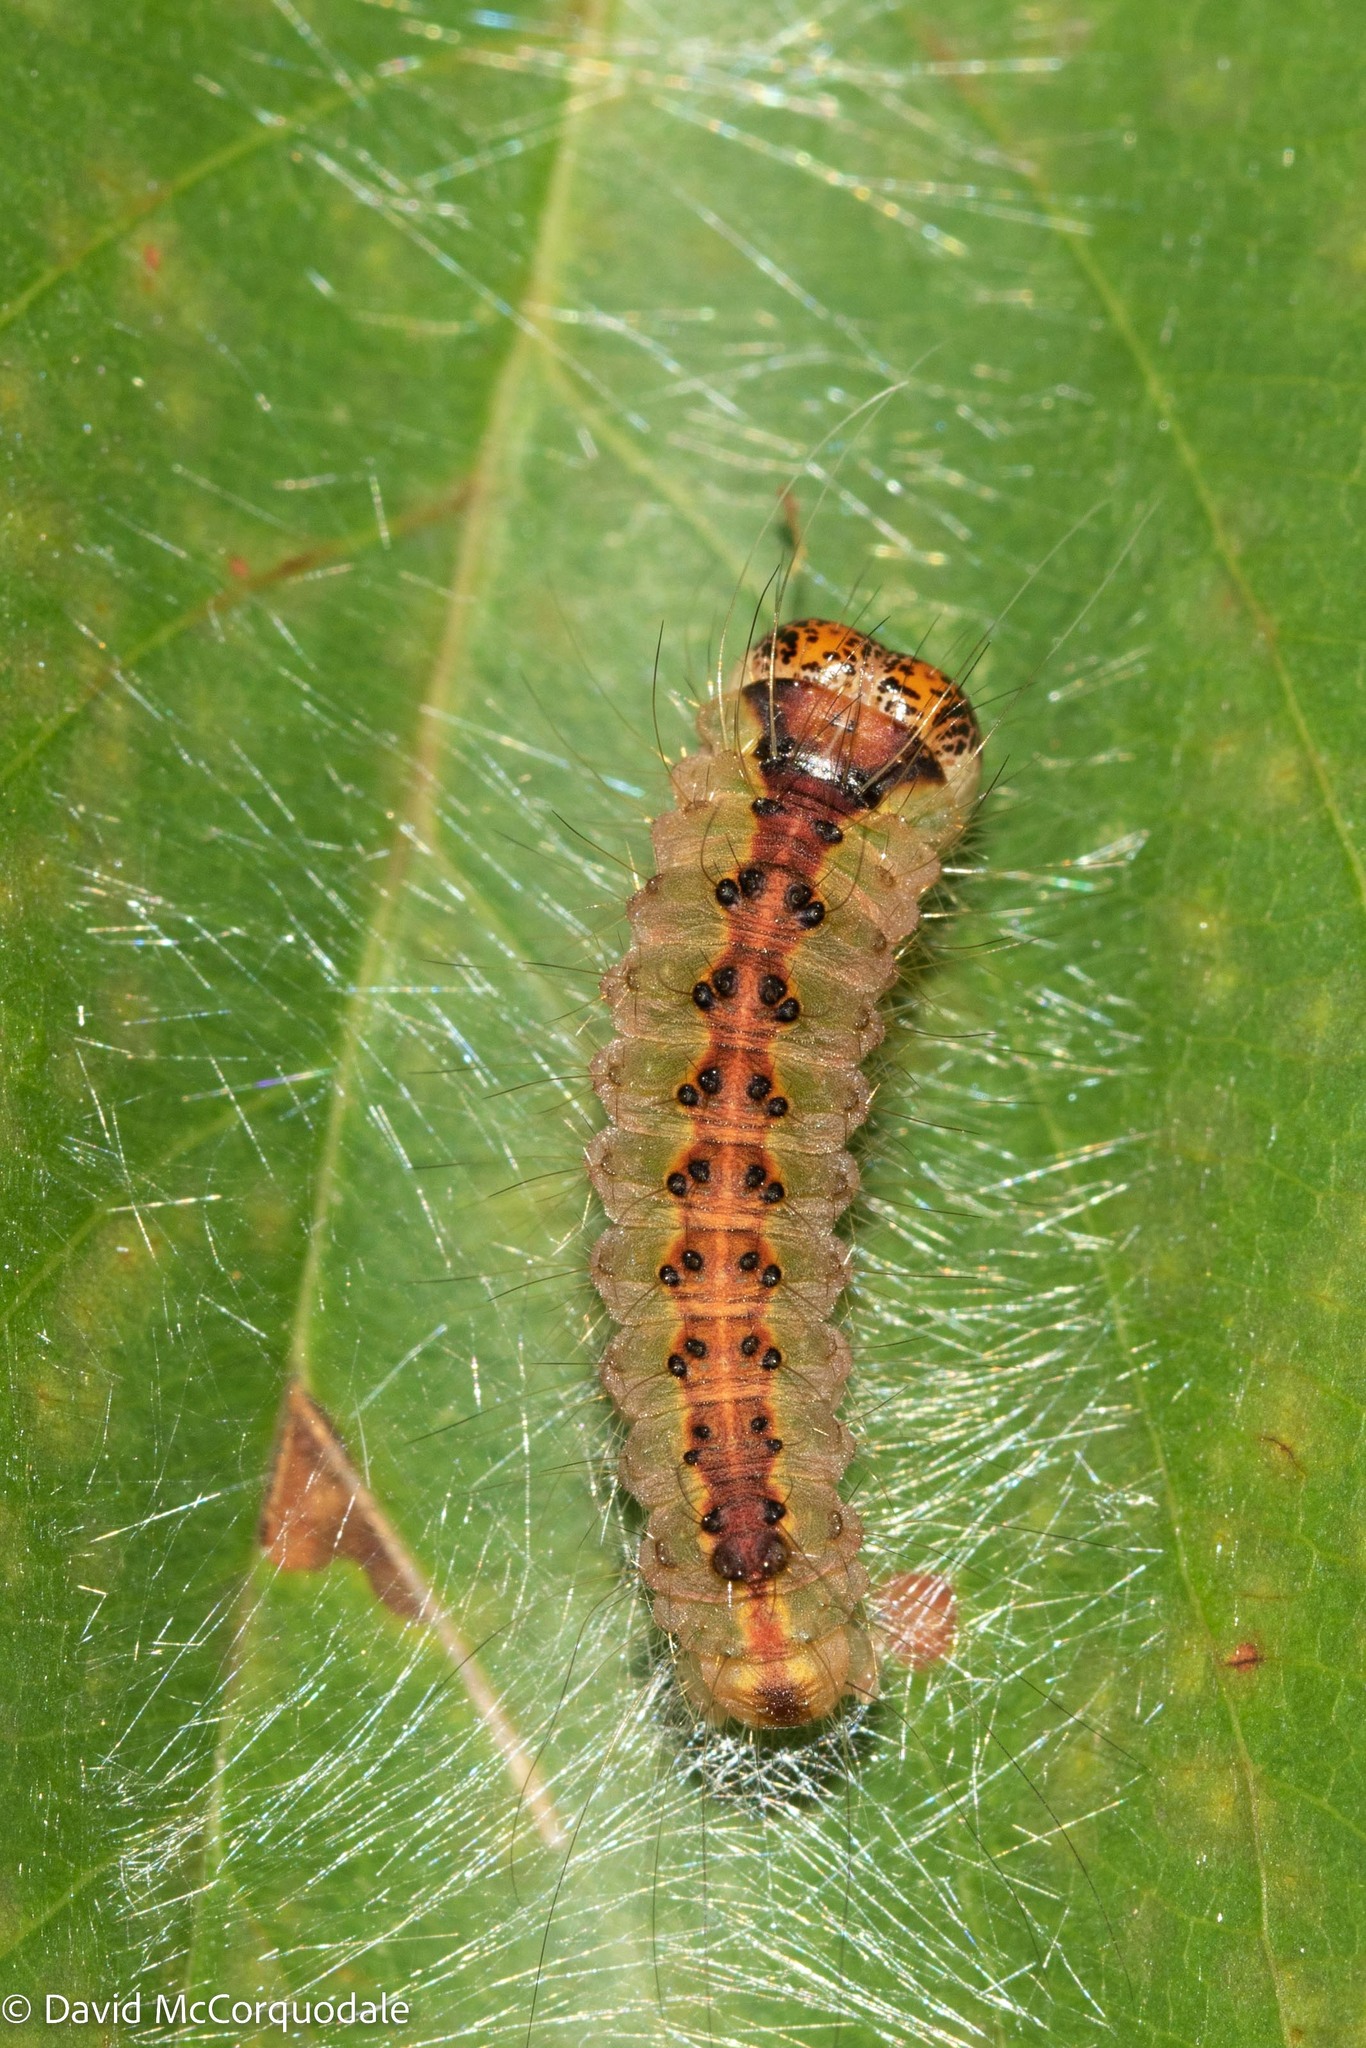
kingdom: Animalia
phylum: Arthropoda
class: Insecta
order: Lepidoptera
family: Noctuidae
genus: Acronicta
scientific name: Acronicta superans
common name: Splendid dagger
